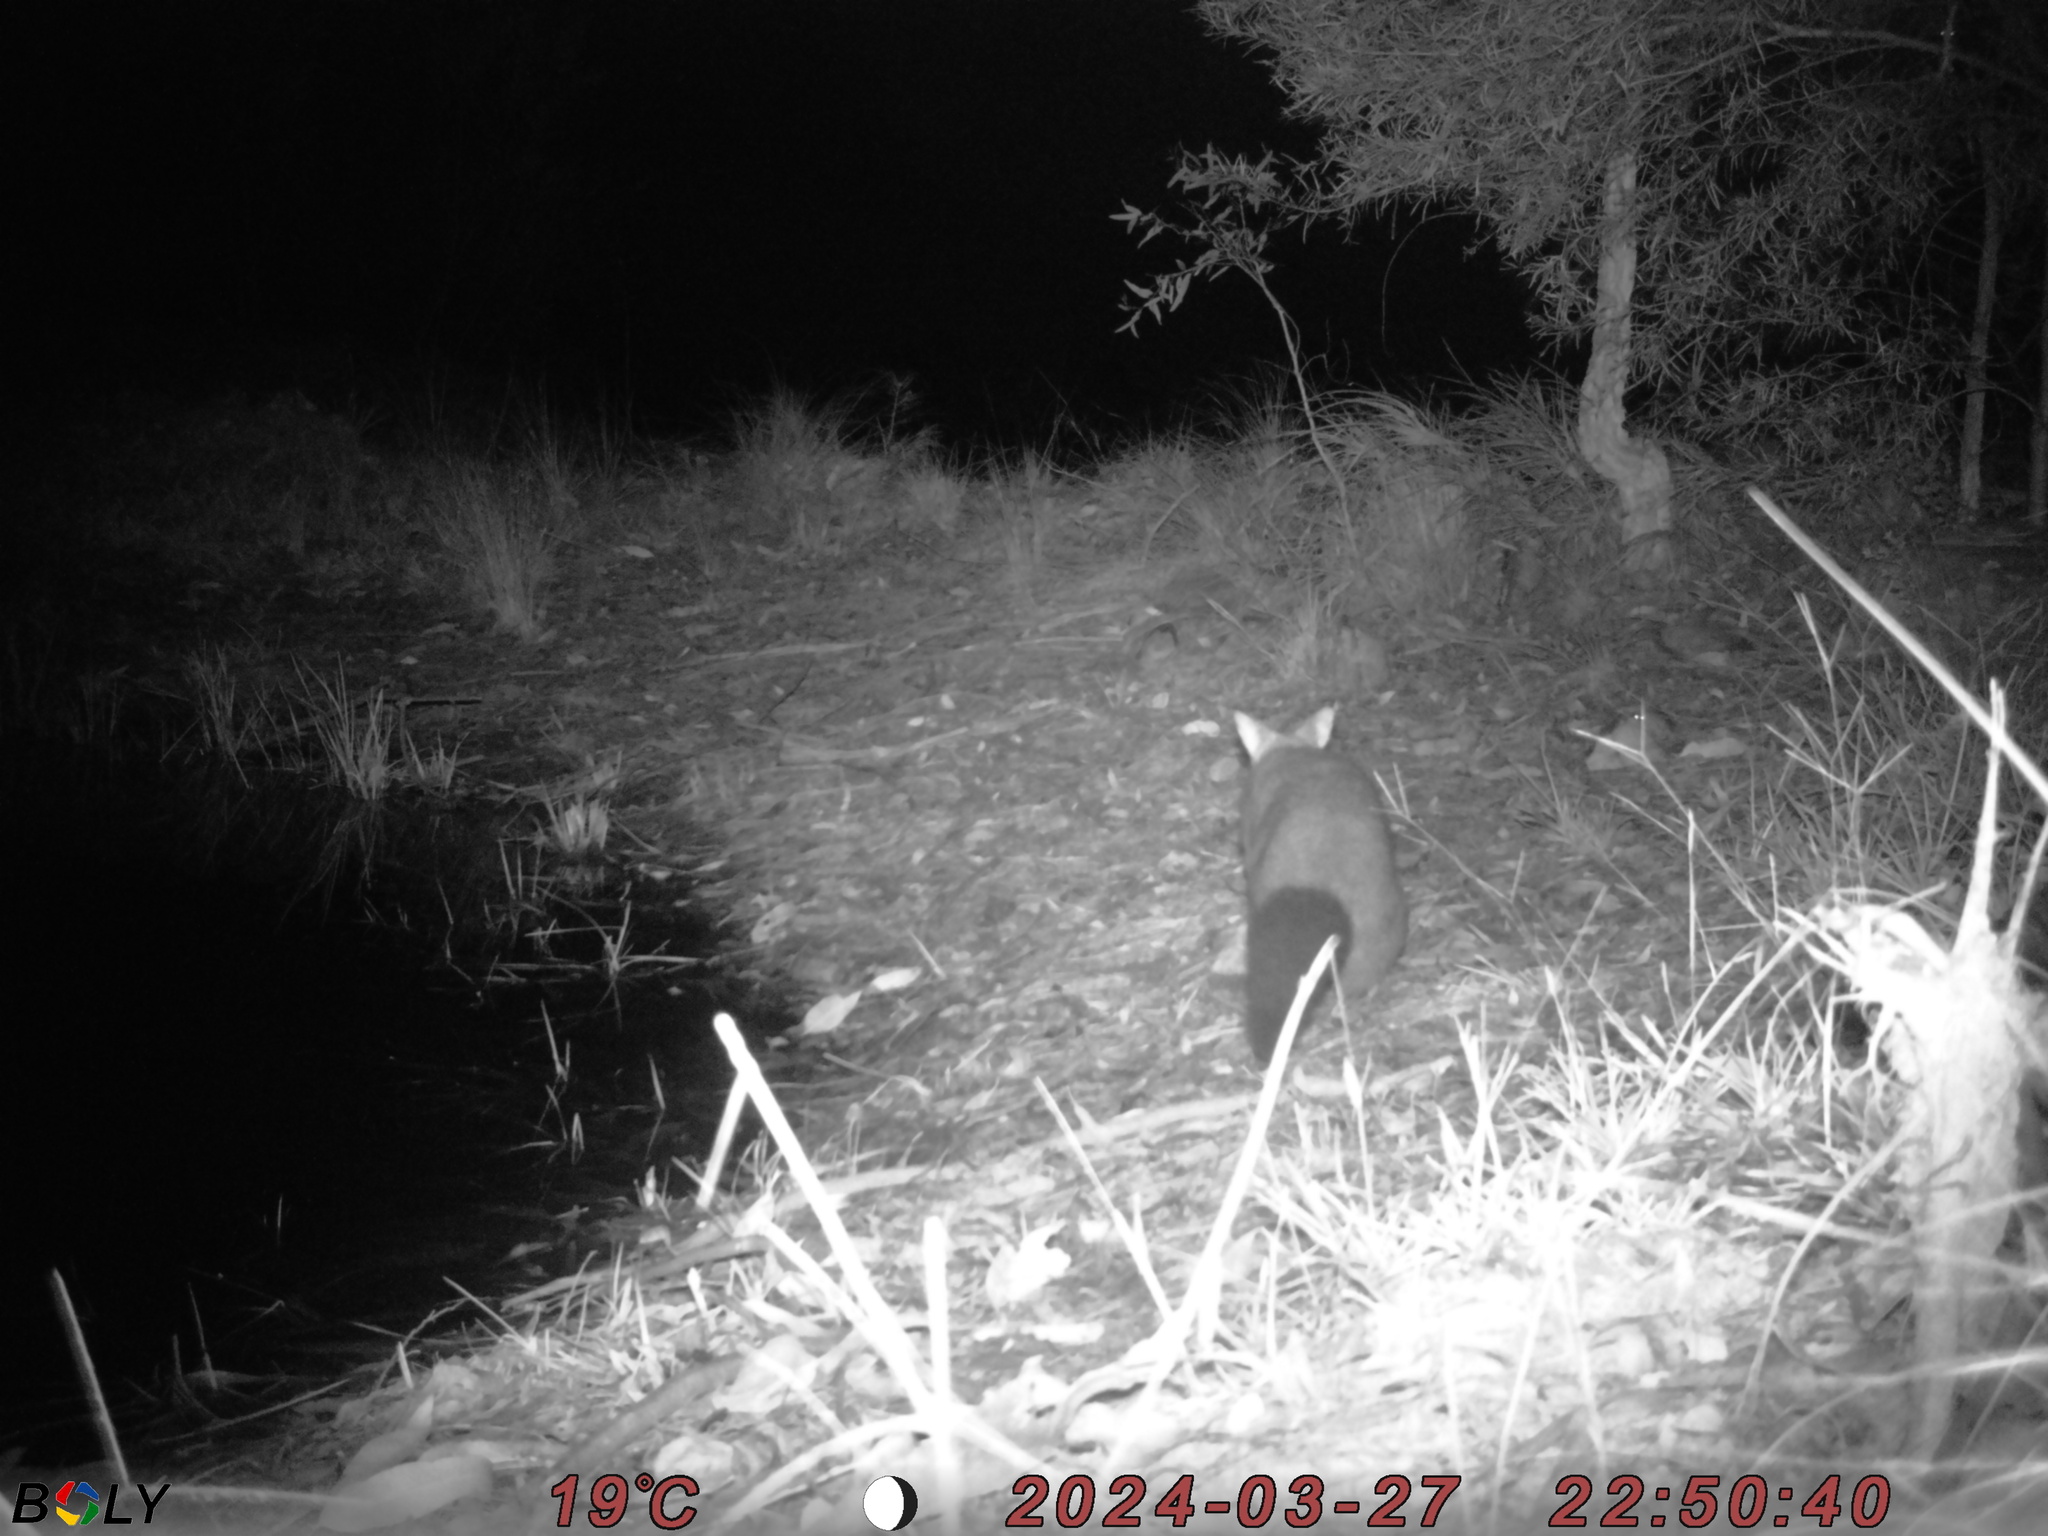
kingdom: Animalia
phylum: Chordata
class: Mammalia
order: Diprotodontia
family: Phalangeridae
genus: Trichosurus
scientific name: Trichosurus vulpecula
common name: Common brushtail
